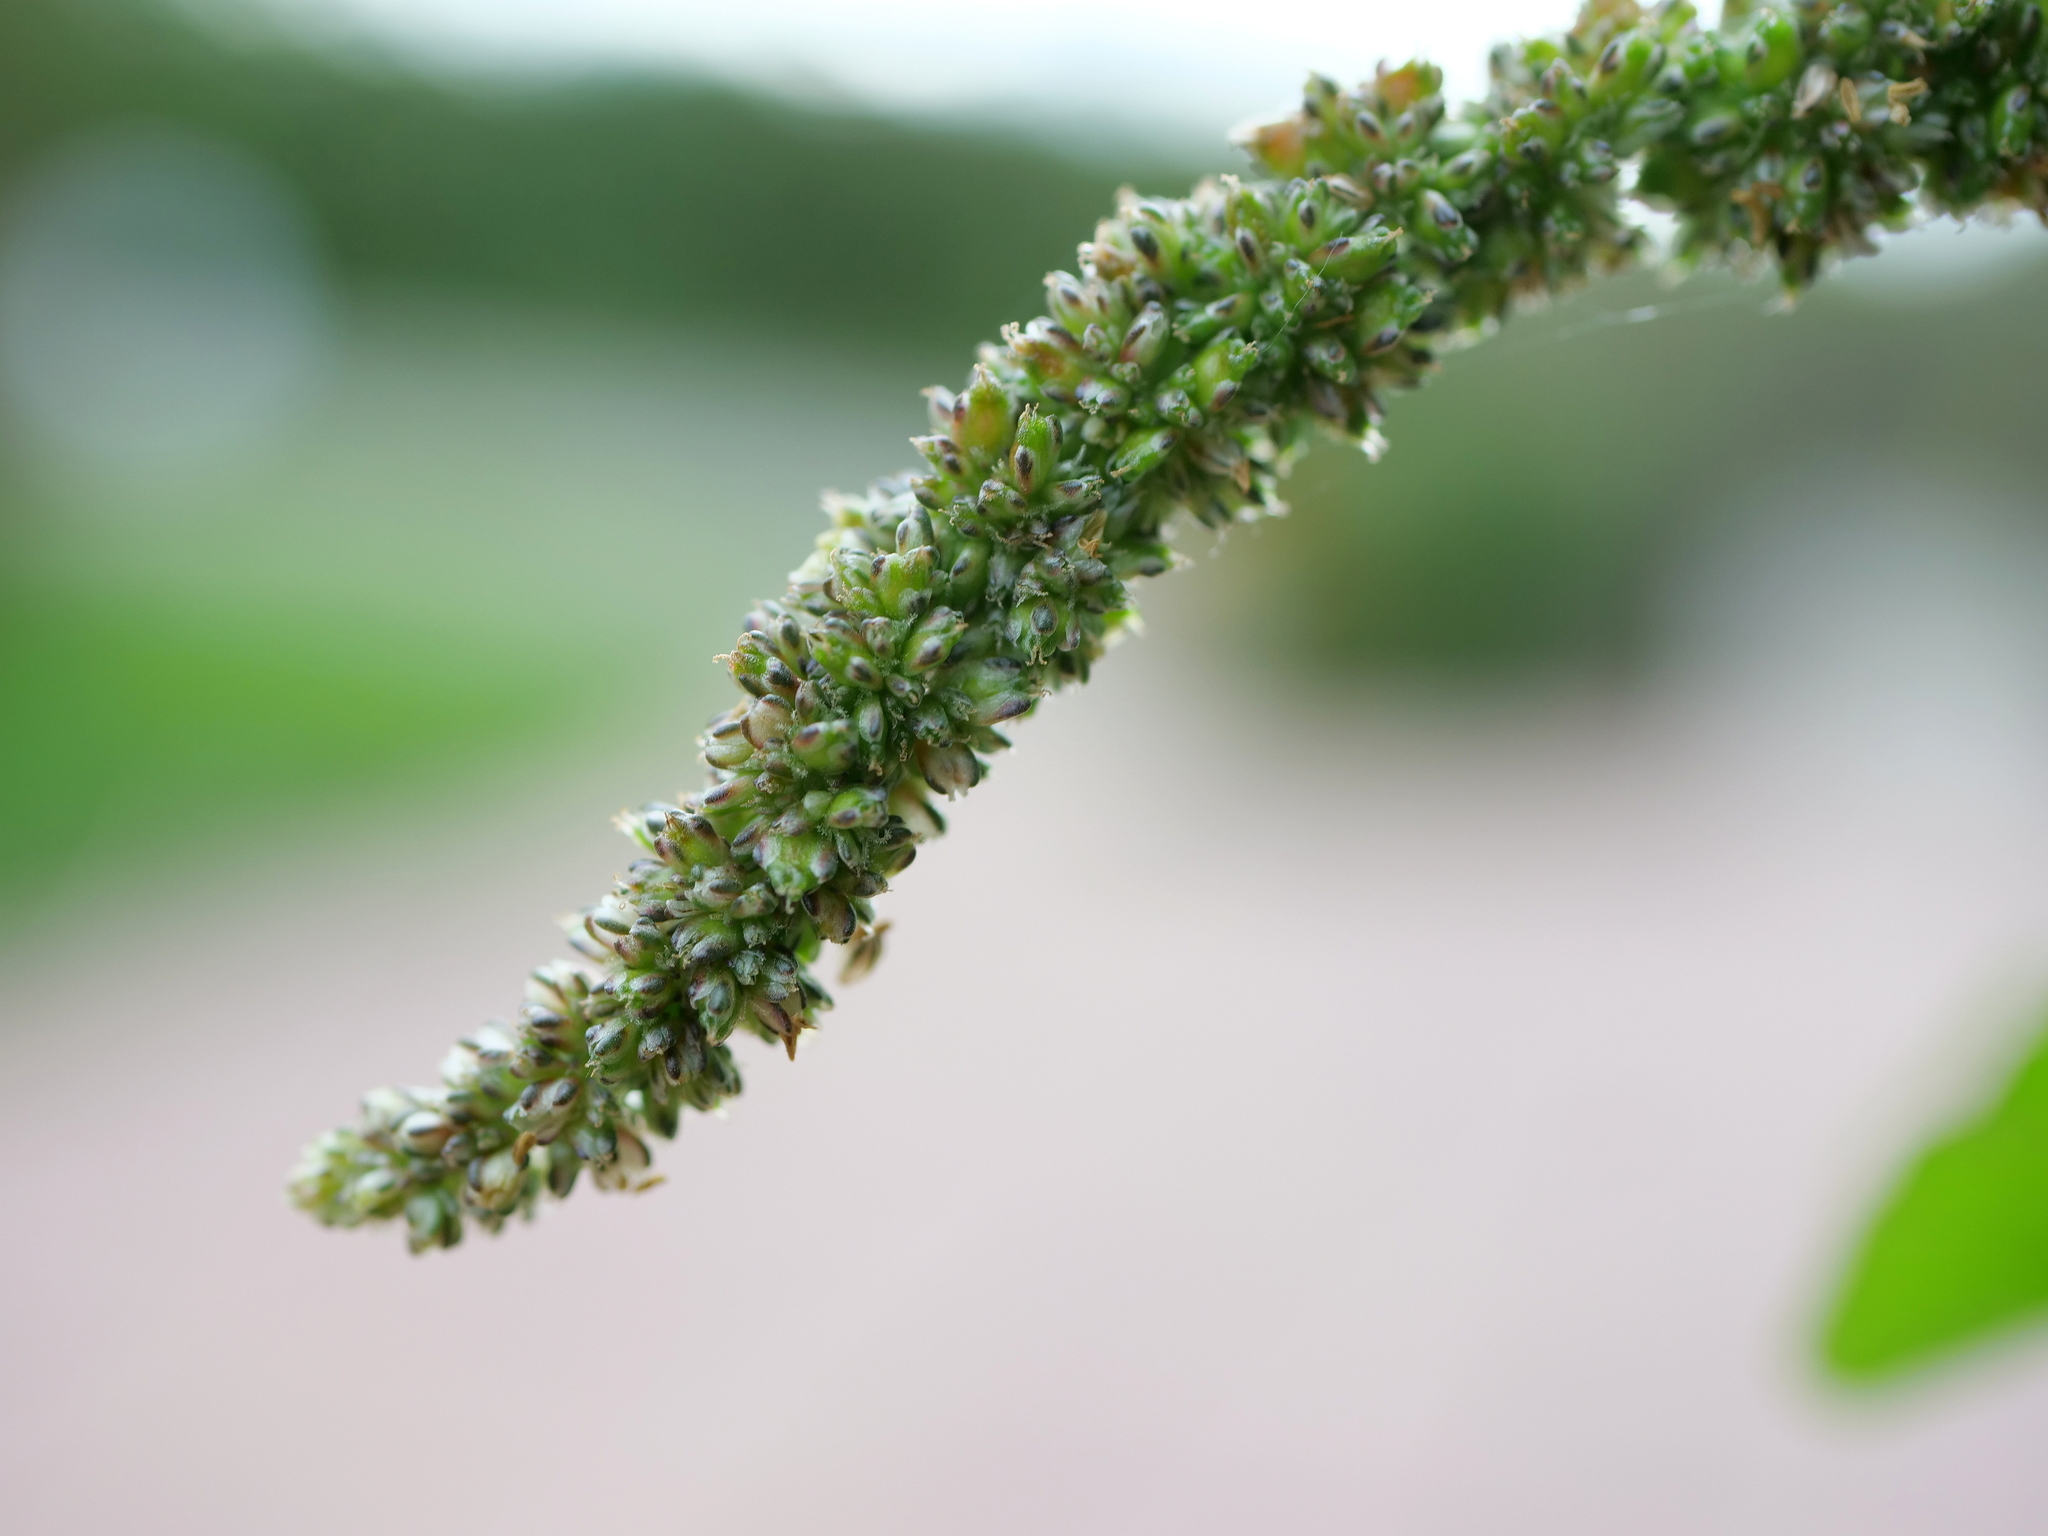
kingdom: Plantae
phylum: Tracheophyta
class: Magnoliopsida
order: Caryophyllales
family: Amaranthaceae
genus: Amaranthus
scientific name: Amaranthus blitum
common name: Purple amaranth
